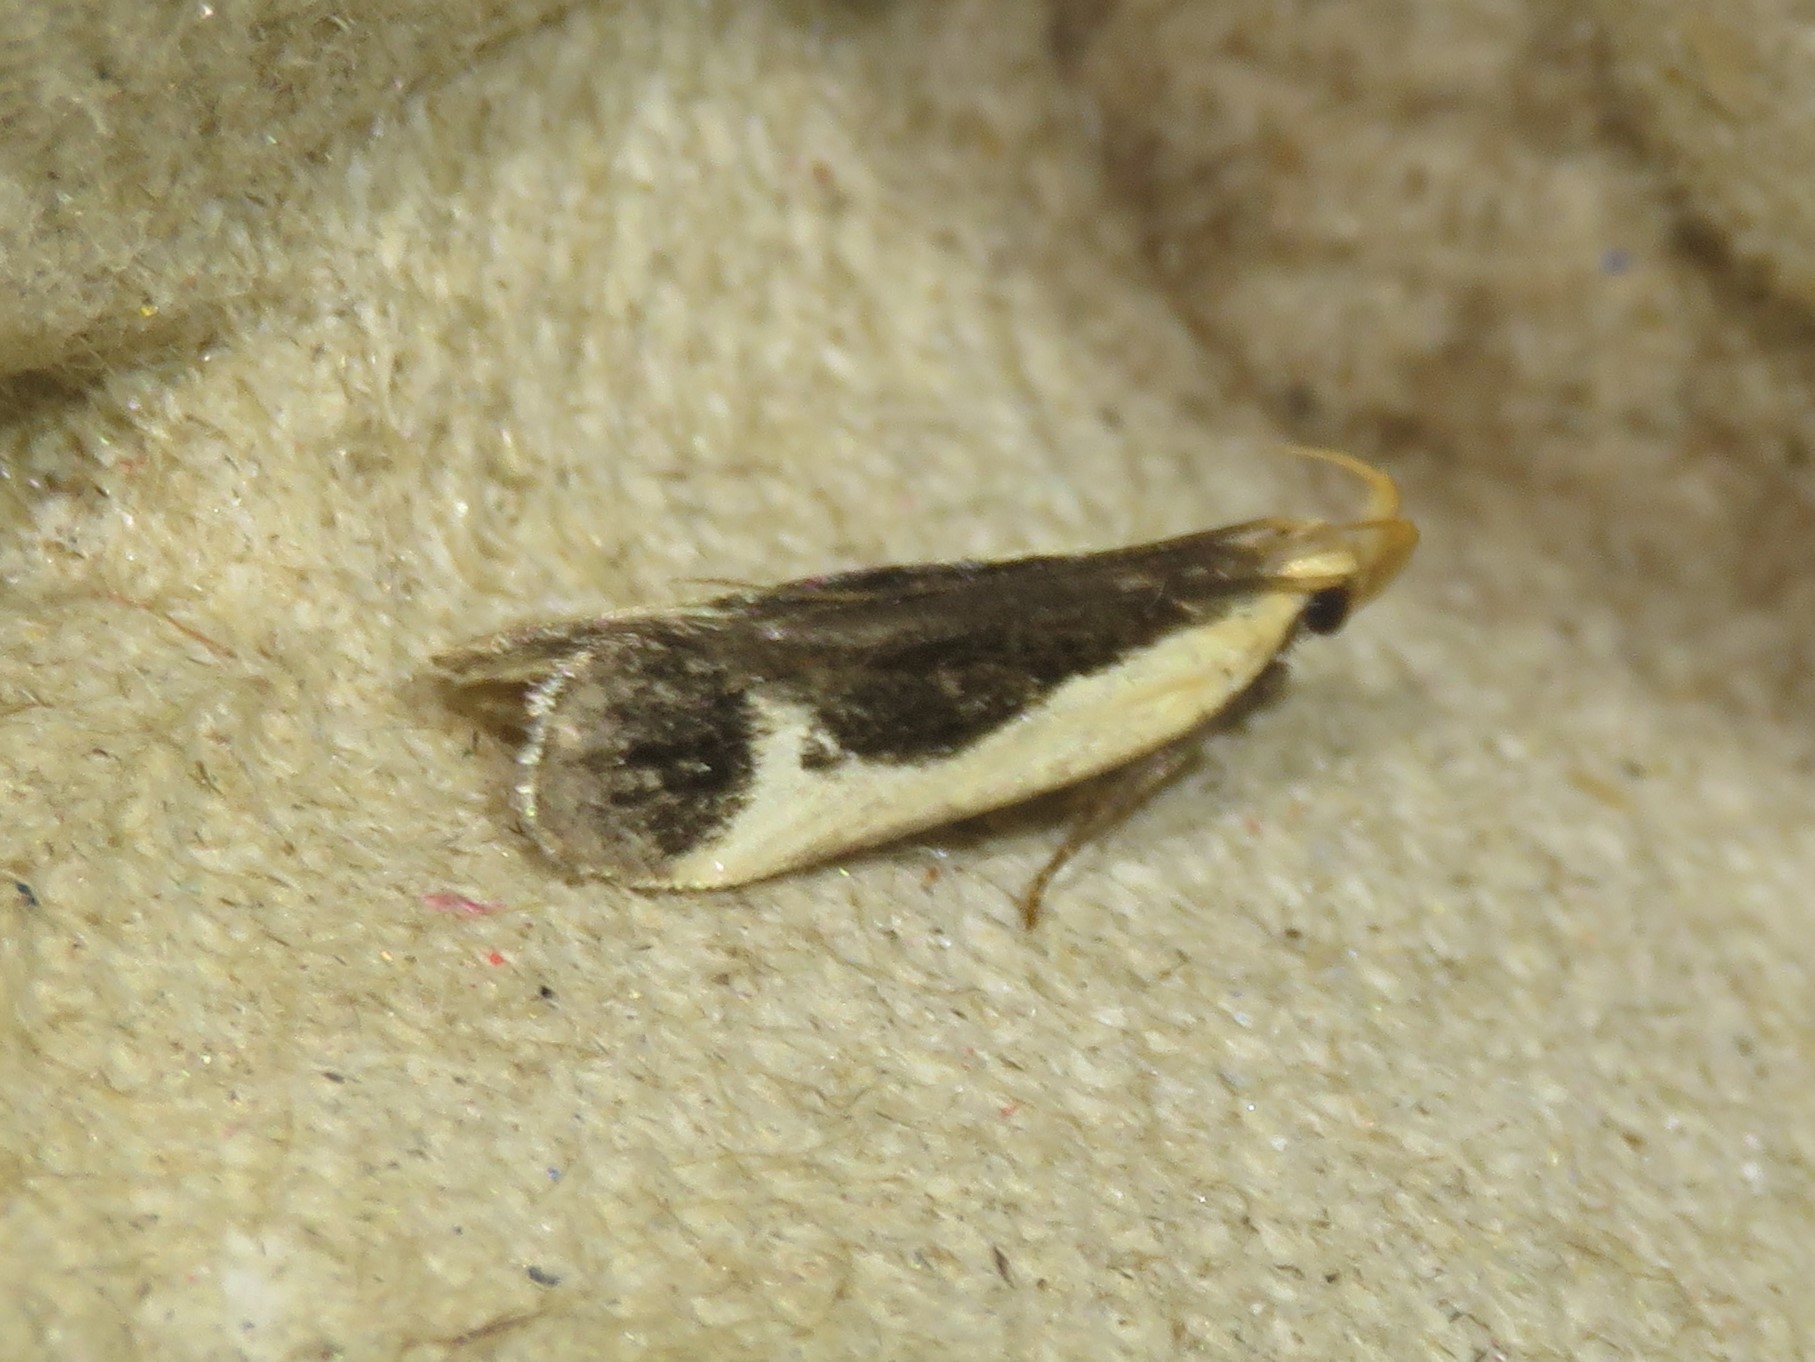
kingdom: Animalia
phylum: Arthropoda
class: Insecta
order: Lepidoptera
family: Gelechiidae
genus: Dichomeris
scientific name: Dichomeris flavocostella
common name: Cream-edged dichomeris moth
